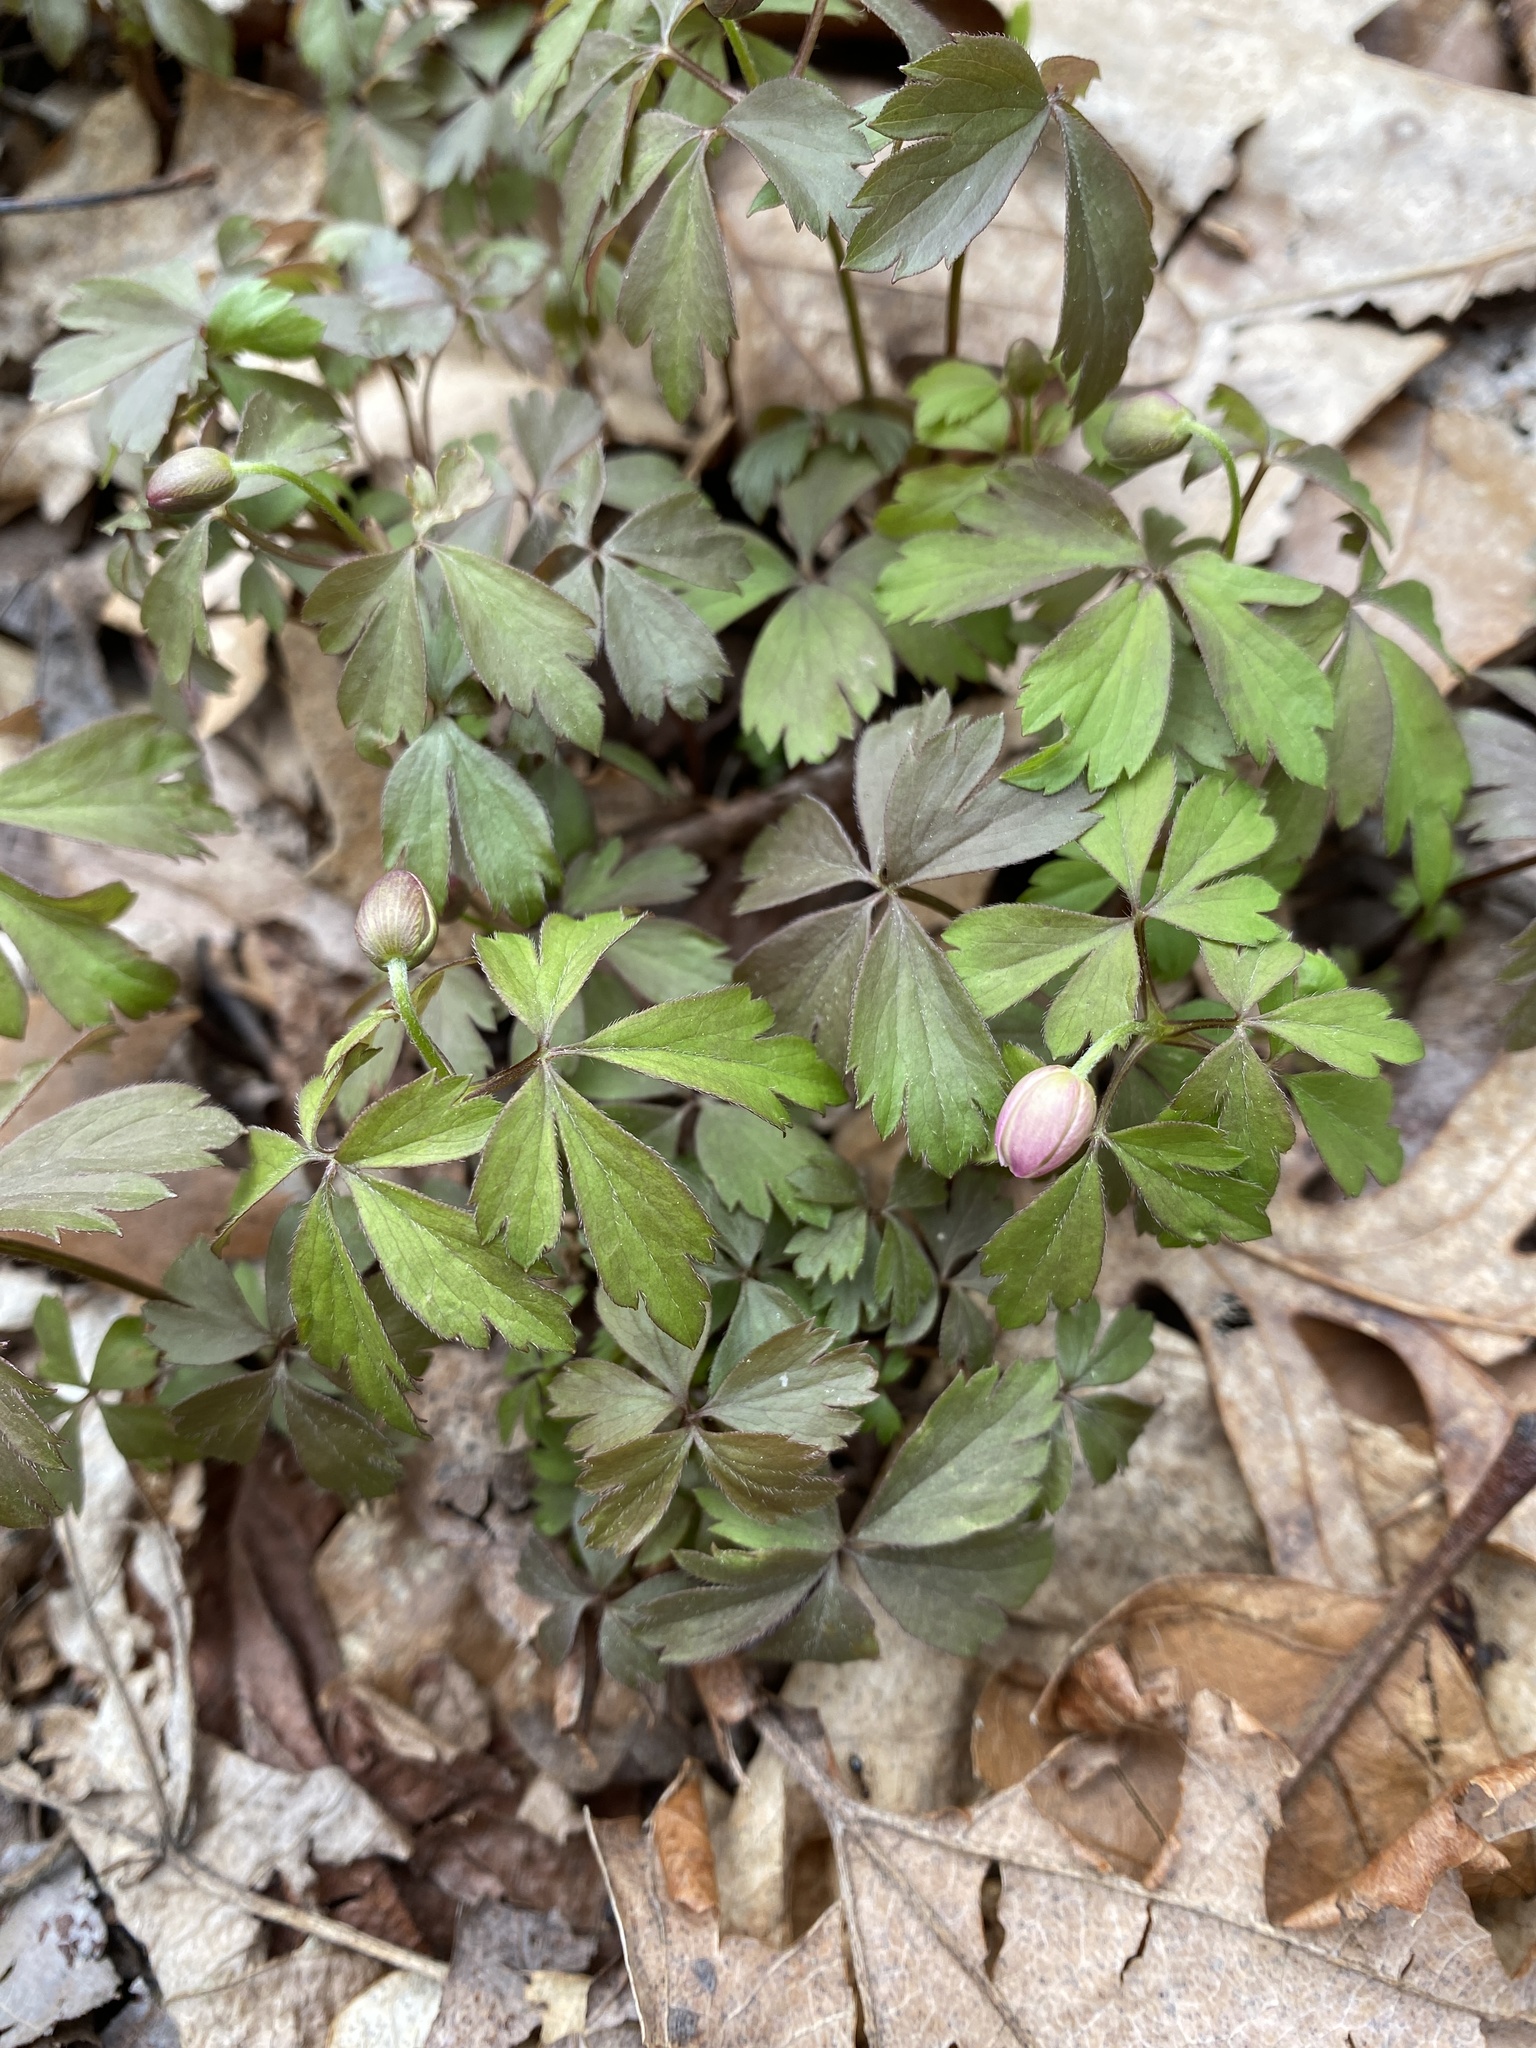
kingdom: Plantae
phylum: Tracheophyta
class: Magnoliopsida
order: Ranunculales
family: Ranunculaceae
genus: Anemone
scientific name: Anemone quinquefolia
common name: Wood anemone
